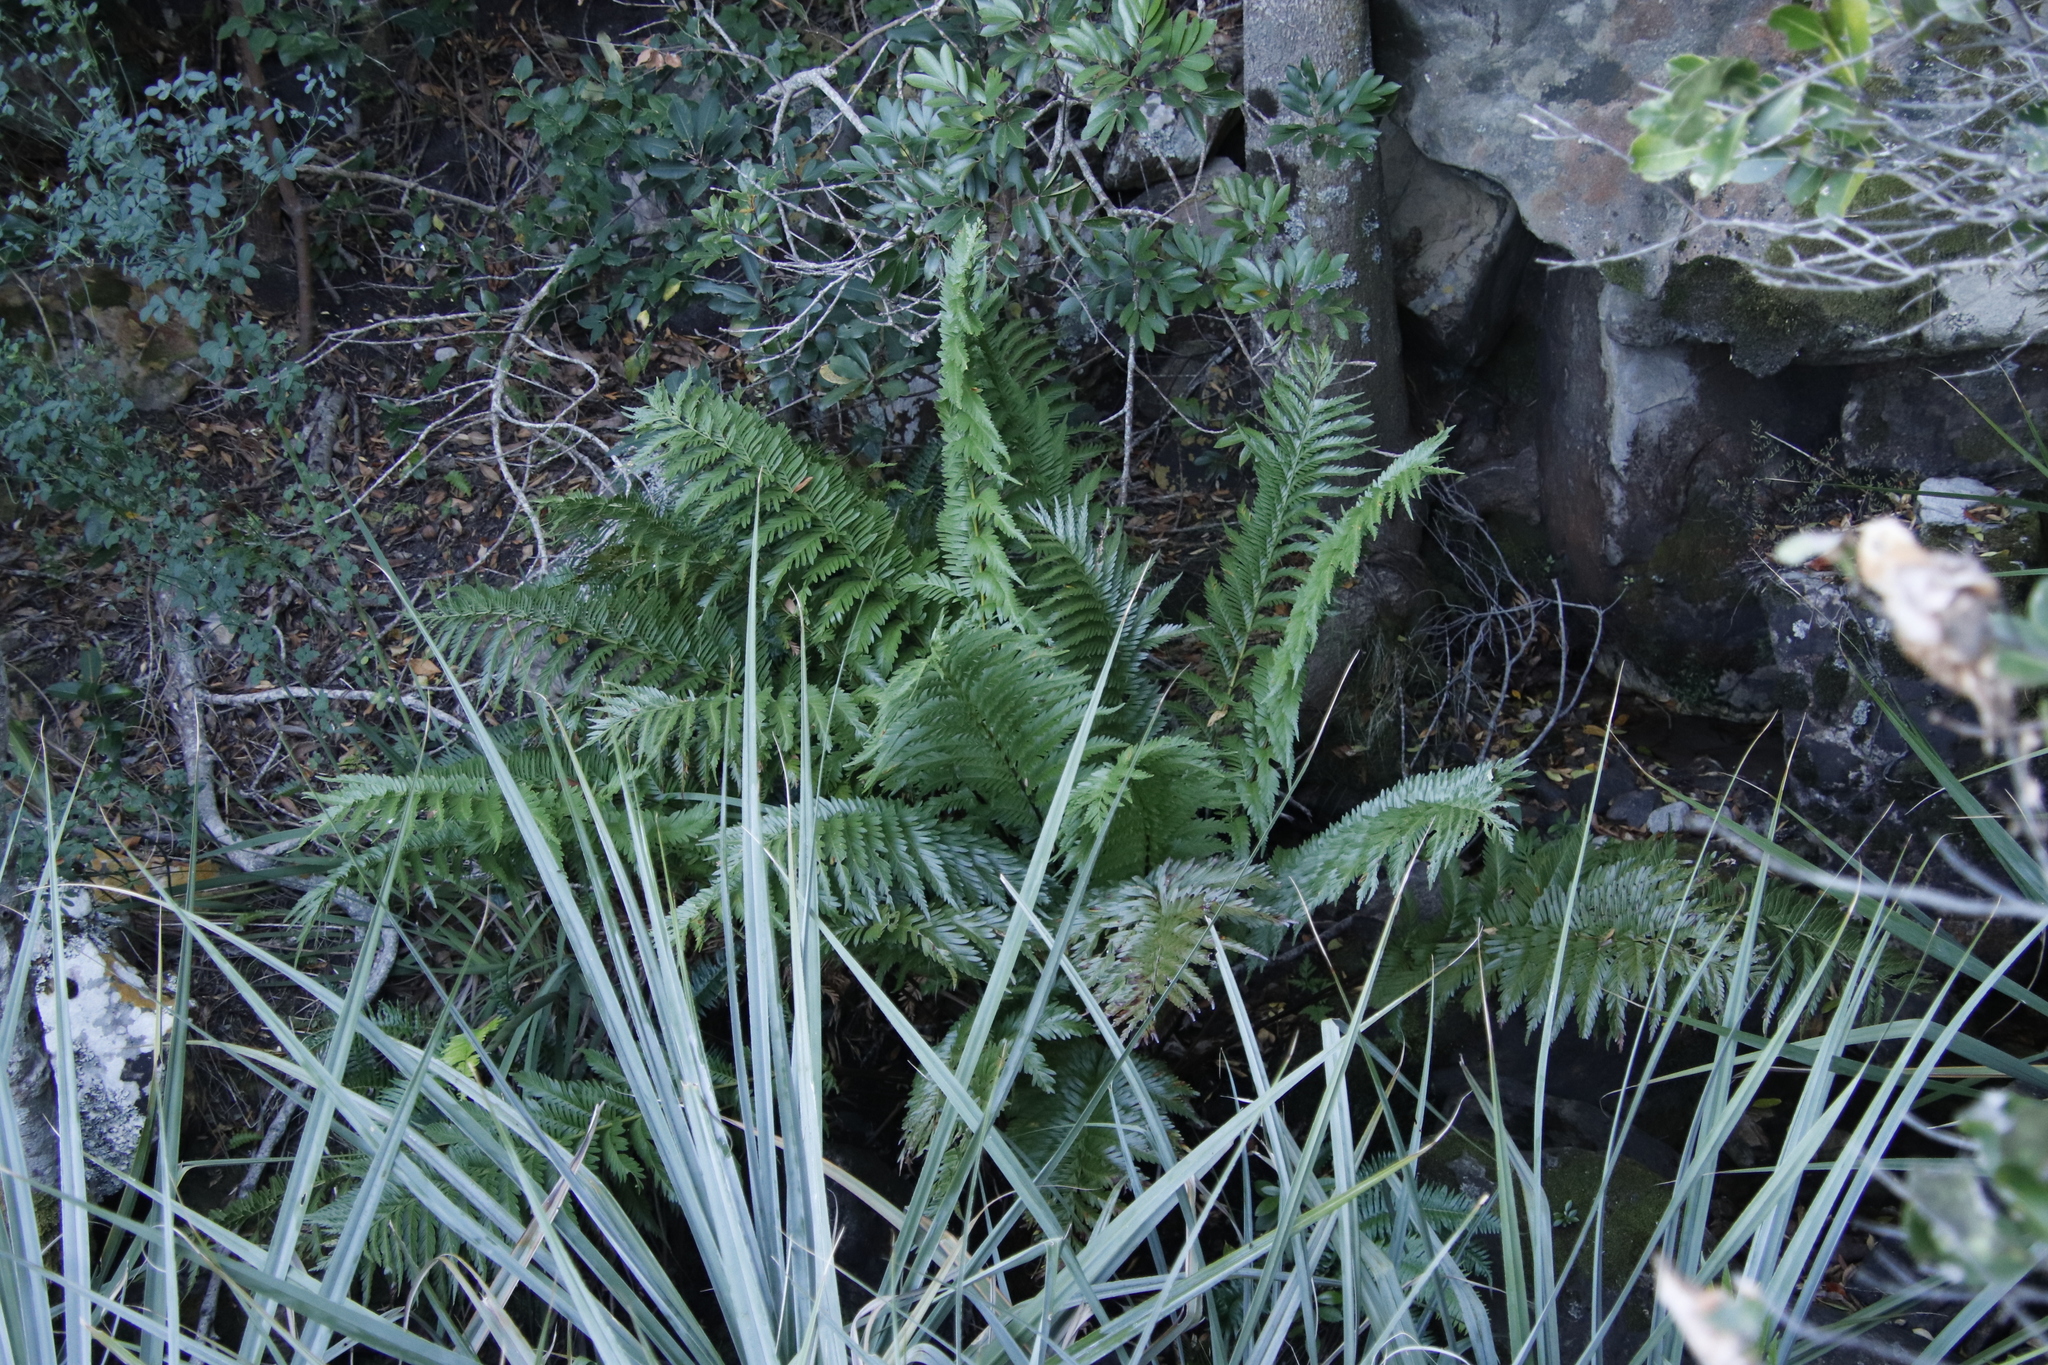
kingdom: Plantae
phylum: Tracheophyta
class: Polypodiopsida
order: Osmundales
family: Osmundaceae
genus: Todea
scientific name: Todea barbara
